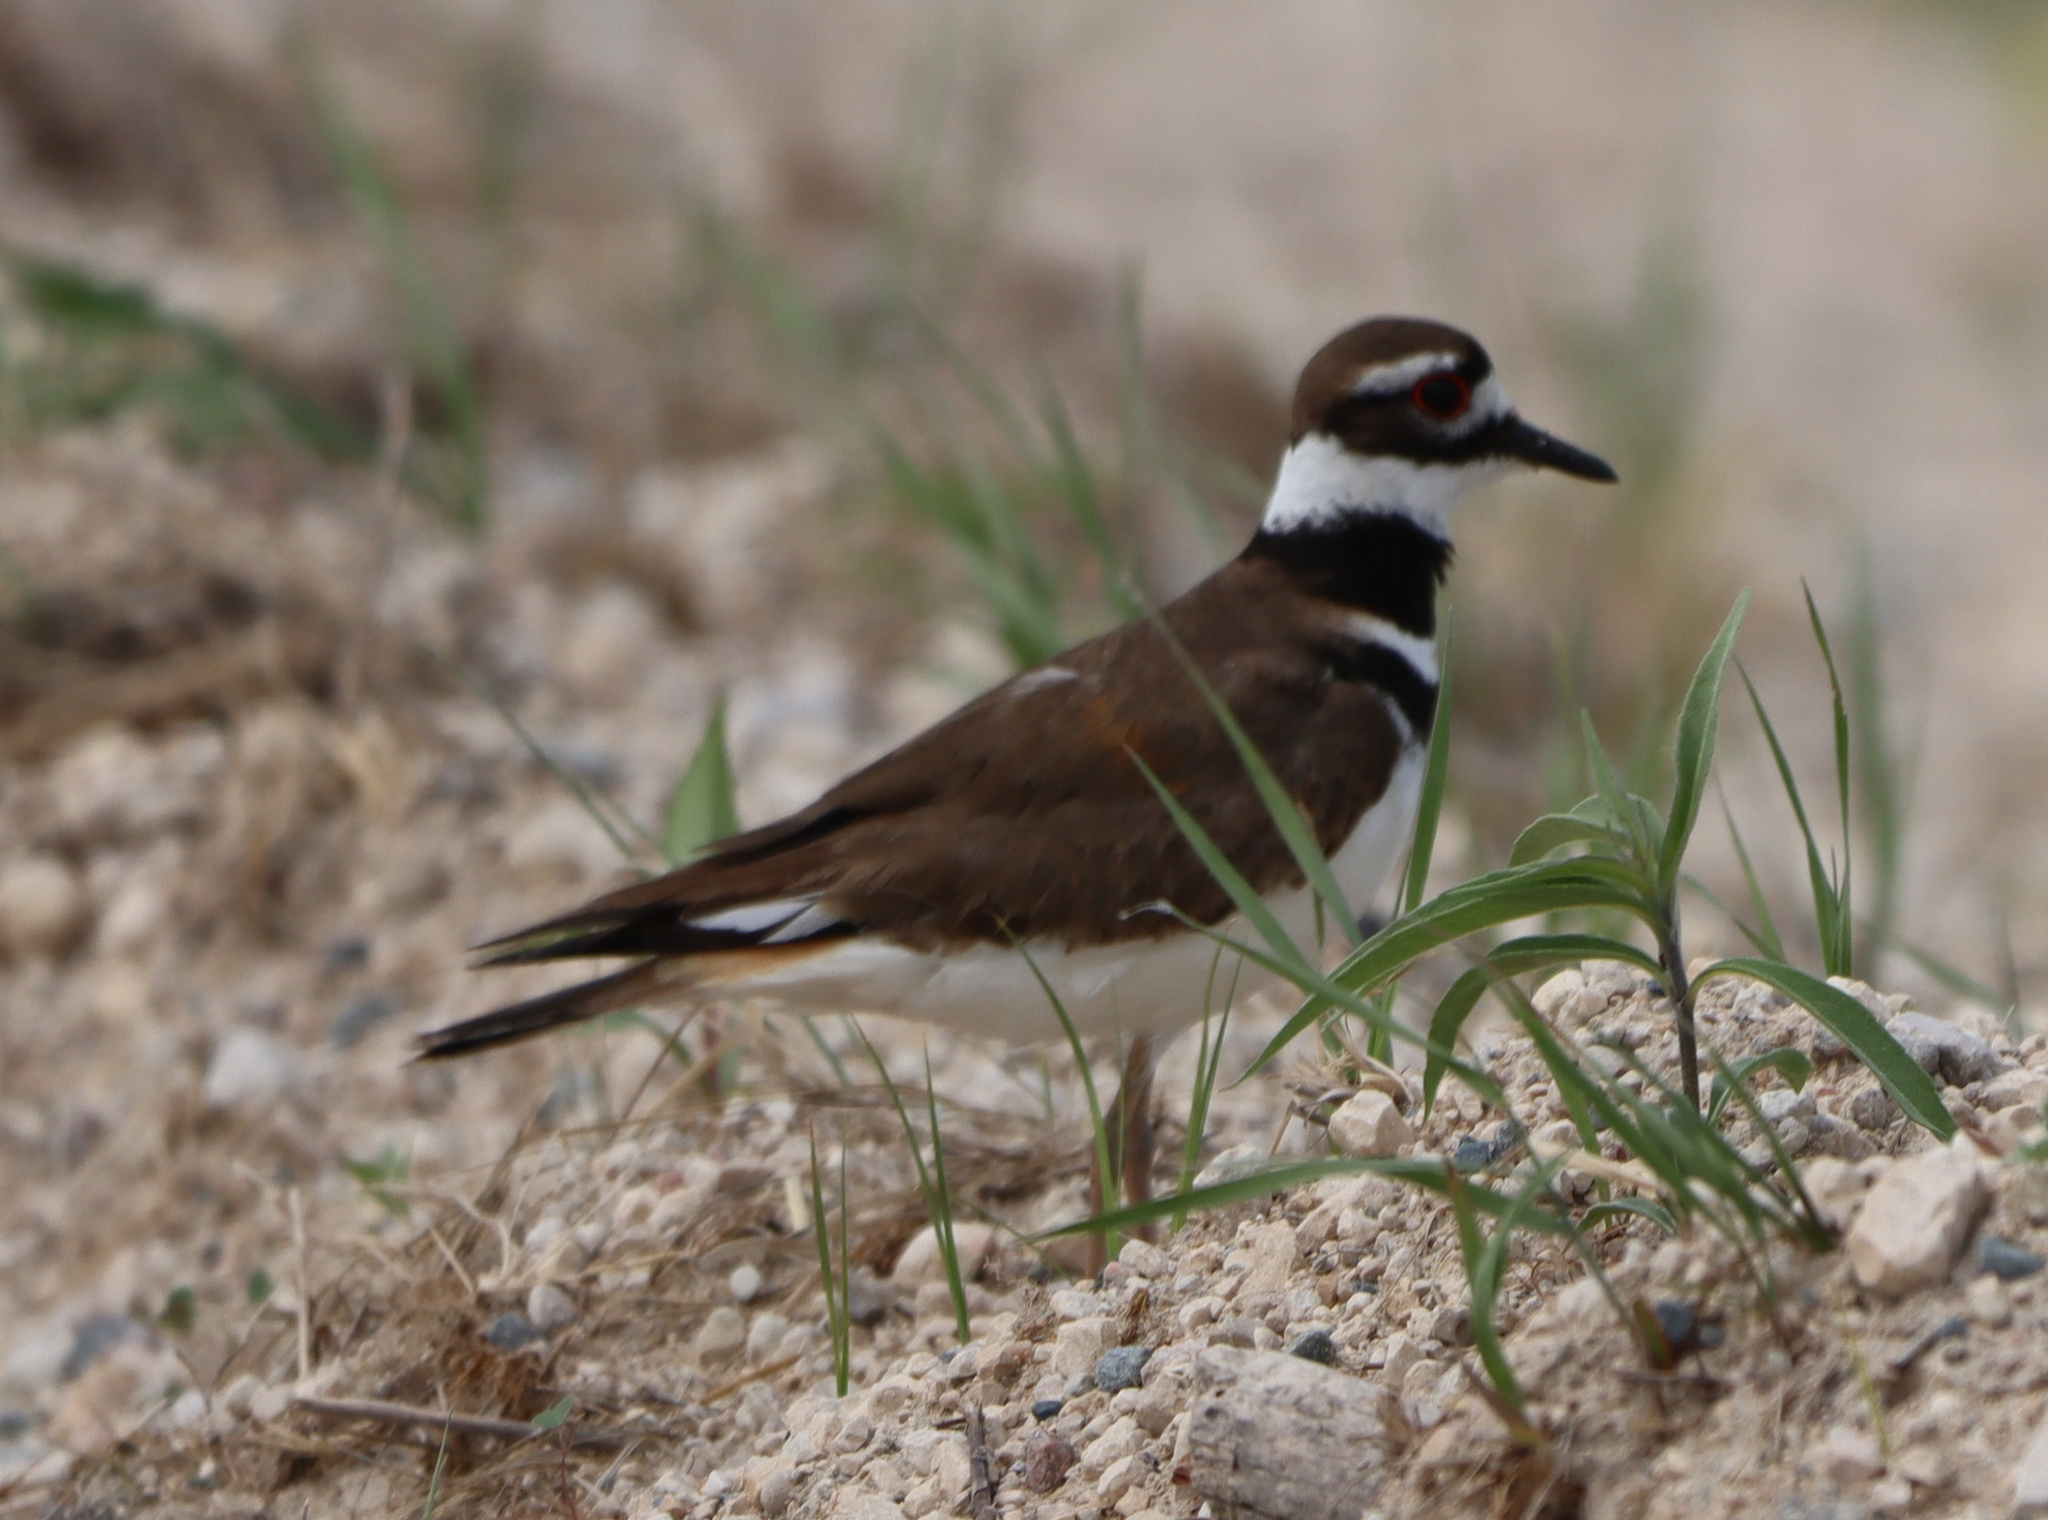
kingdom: Animalia
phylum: Chordata
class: Aves
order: Charadriiformes
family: Charadriidae
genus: Charadrius
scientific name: Charadrius vociferus
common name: Killdeer
